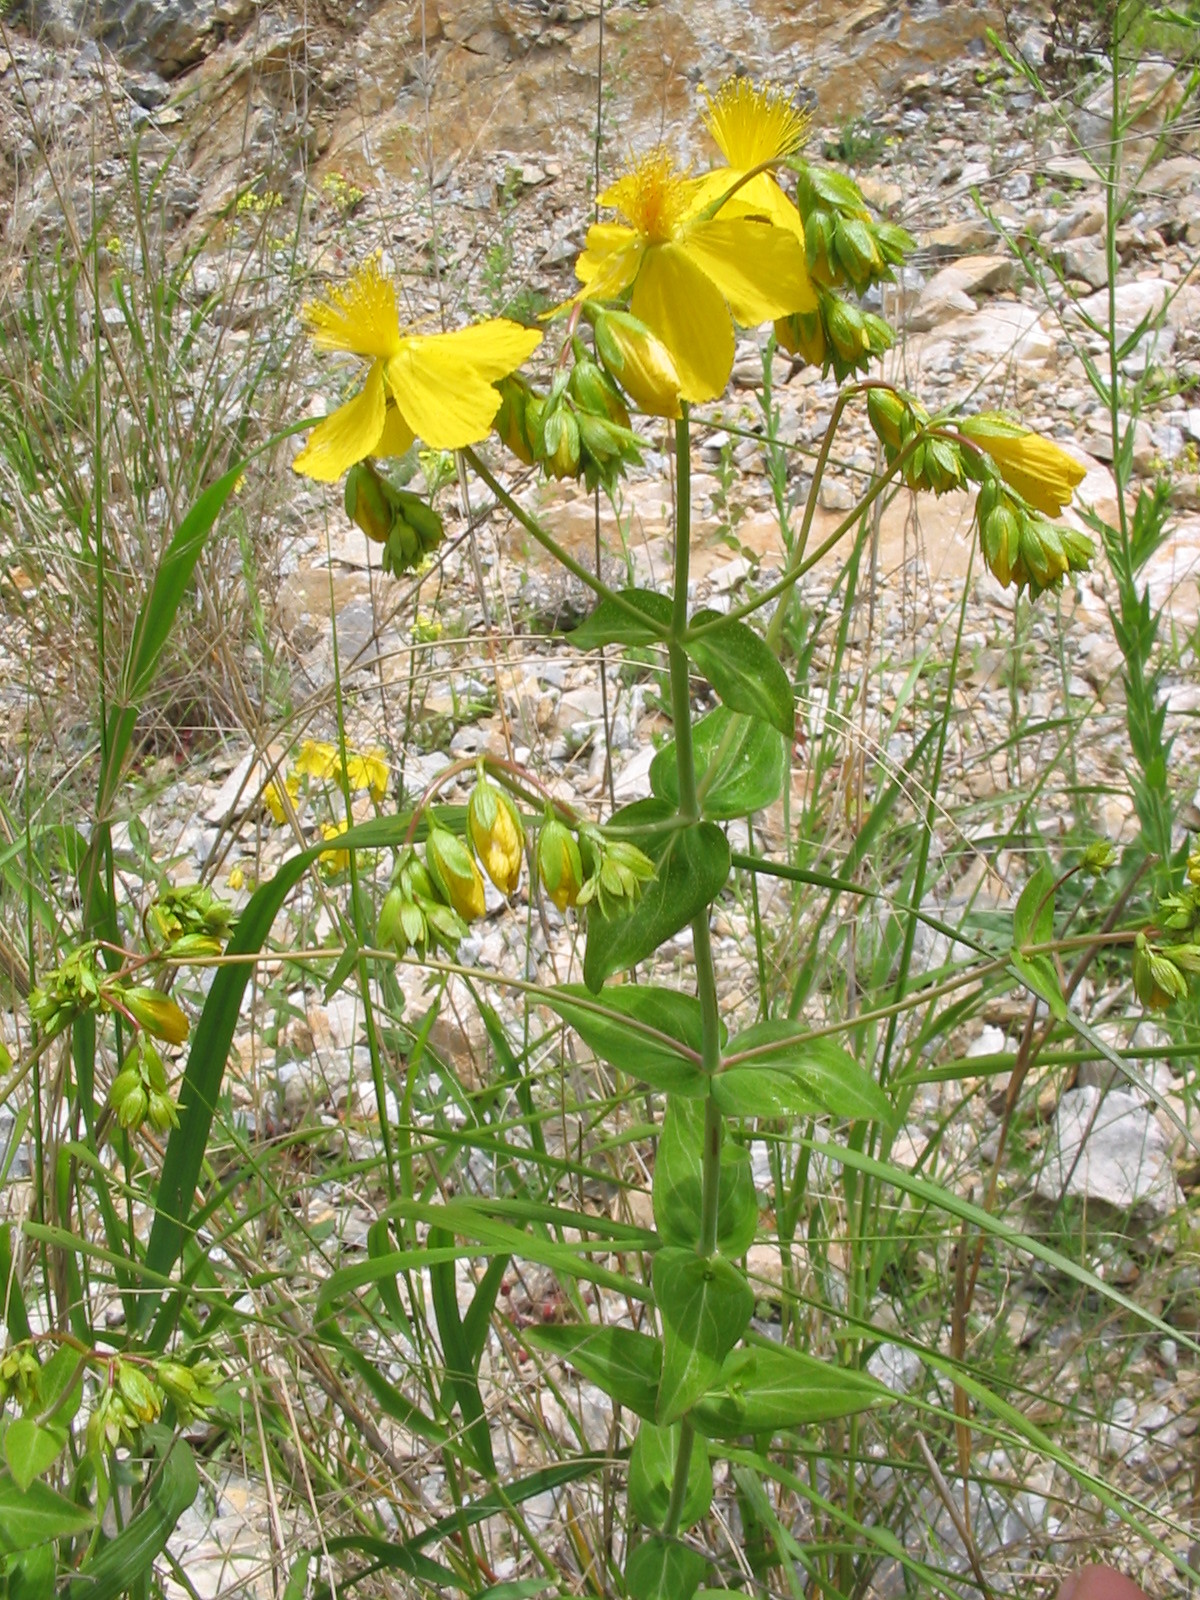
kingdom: Plantae
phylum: Tracheophyta
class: Magnoliopsida
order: Malpighiales
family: Hypericaceae
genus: Hypericum
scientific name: Hypericum montbretii
